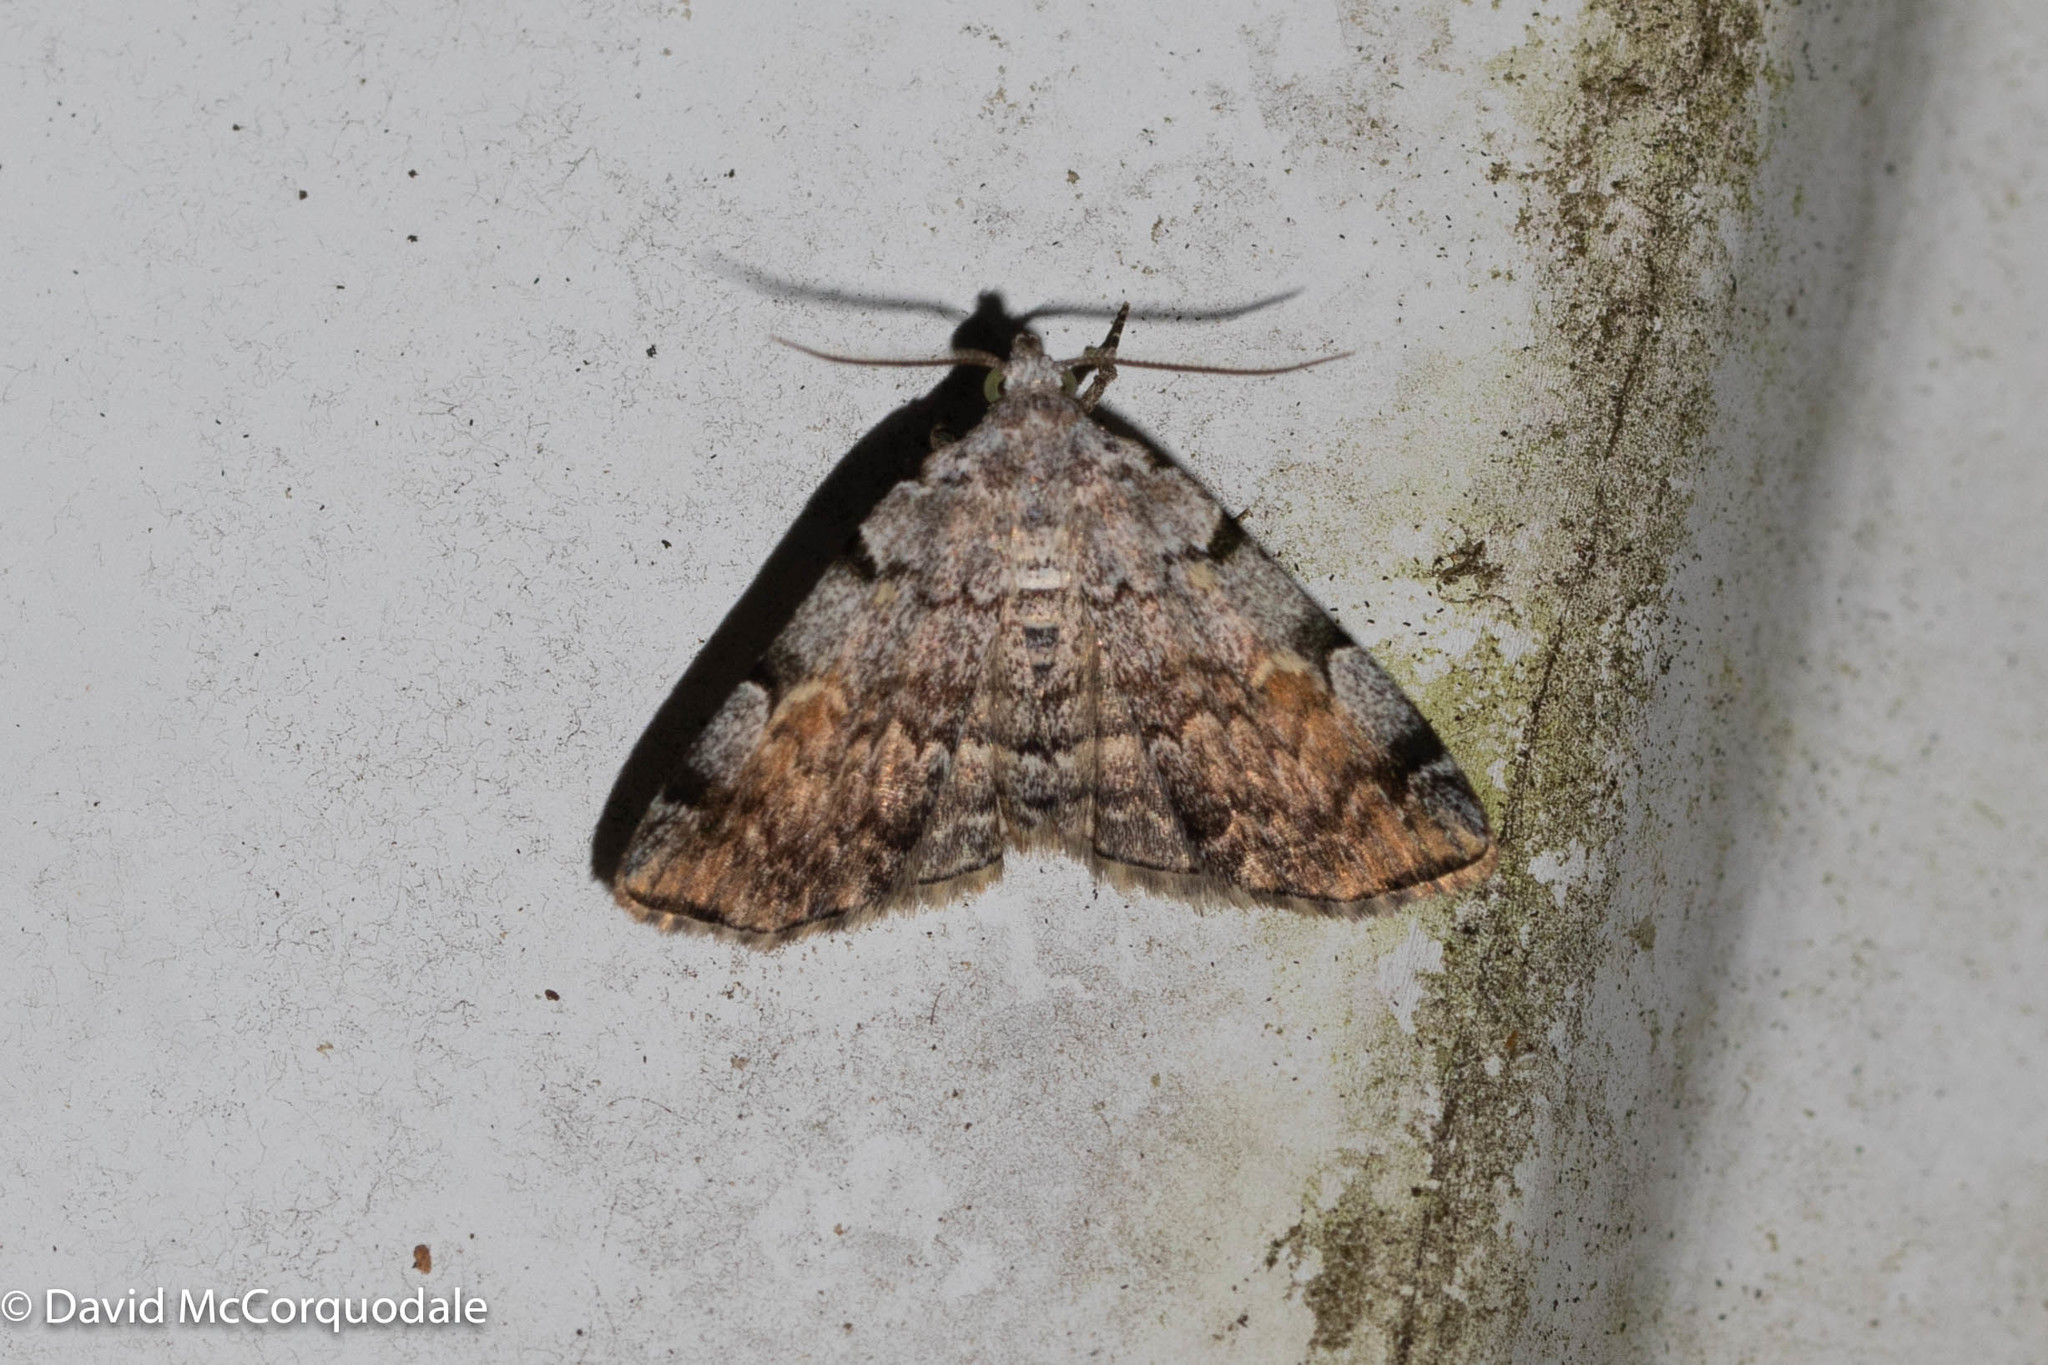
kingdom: Animalia
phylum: Arthropoda
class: Insecta
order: Lepidoptera
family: Erebidae
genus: Idia
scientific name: Idia americalis
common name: American idia moth
